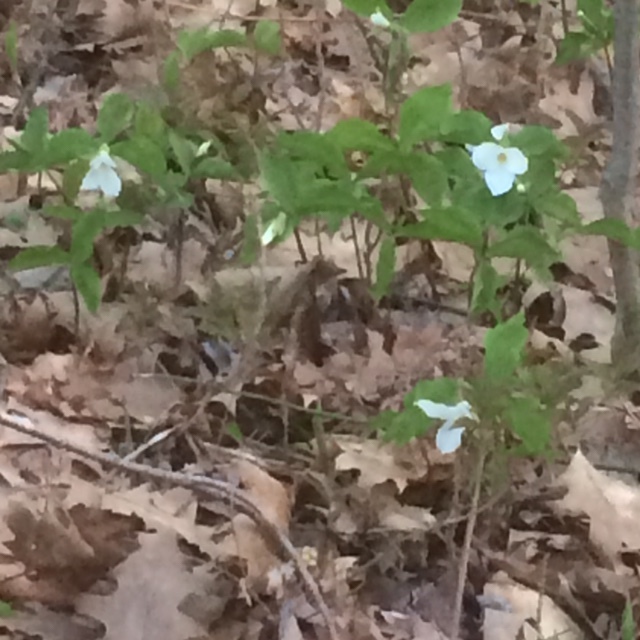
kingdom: Plantae
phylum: Tracheophyta
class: Liliopsida
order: Liliales
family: Melanthiaceae
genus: Trillium
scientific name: Trillium grandiflorum
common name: Great white trillium
